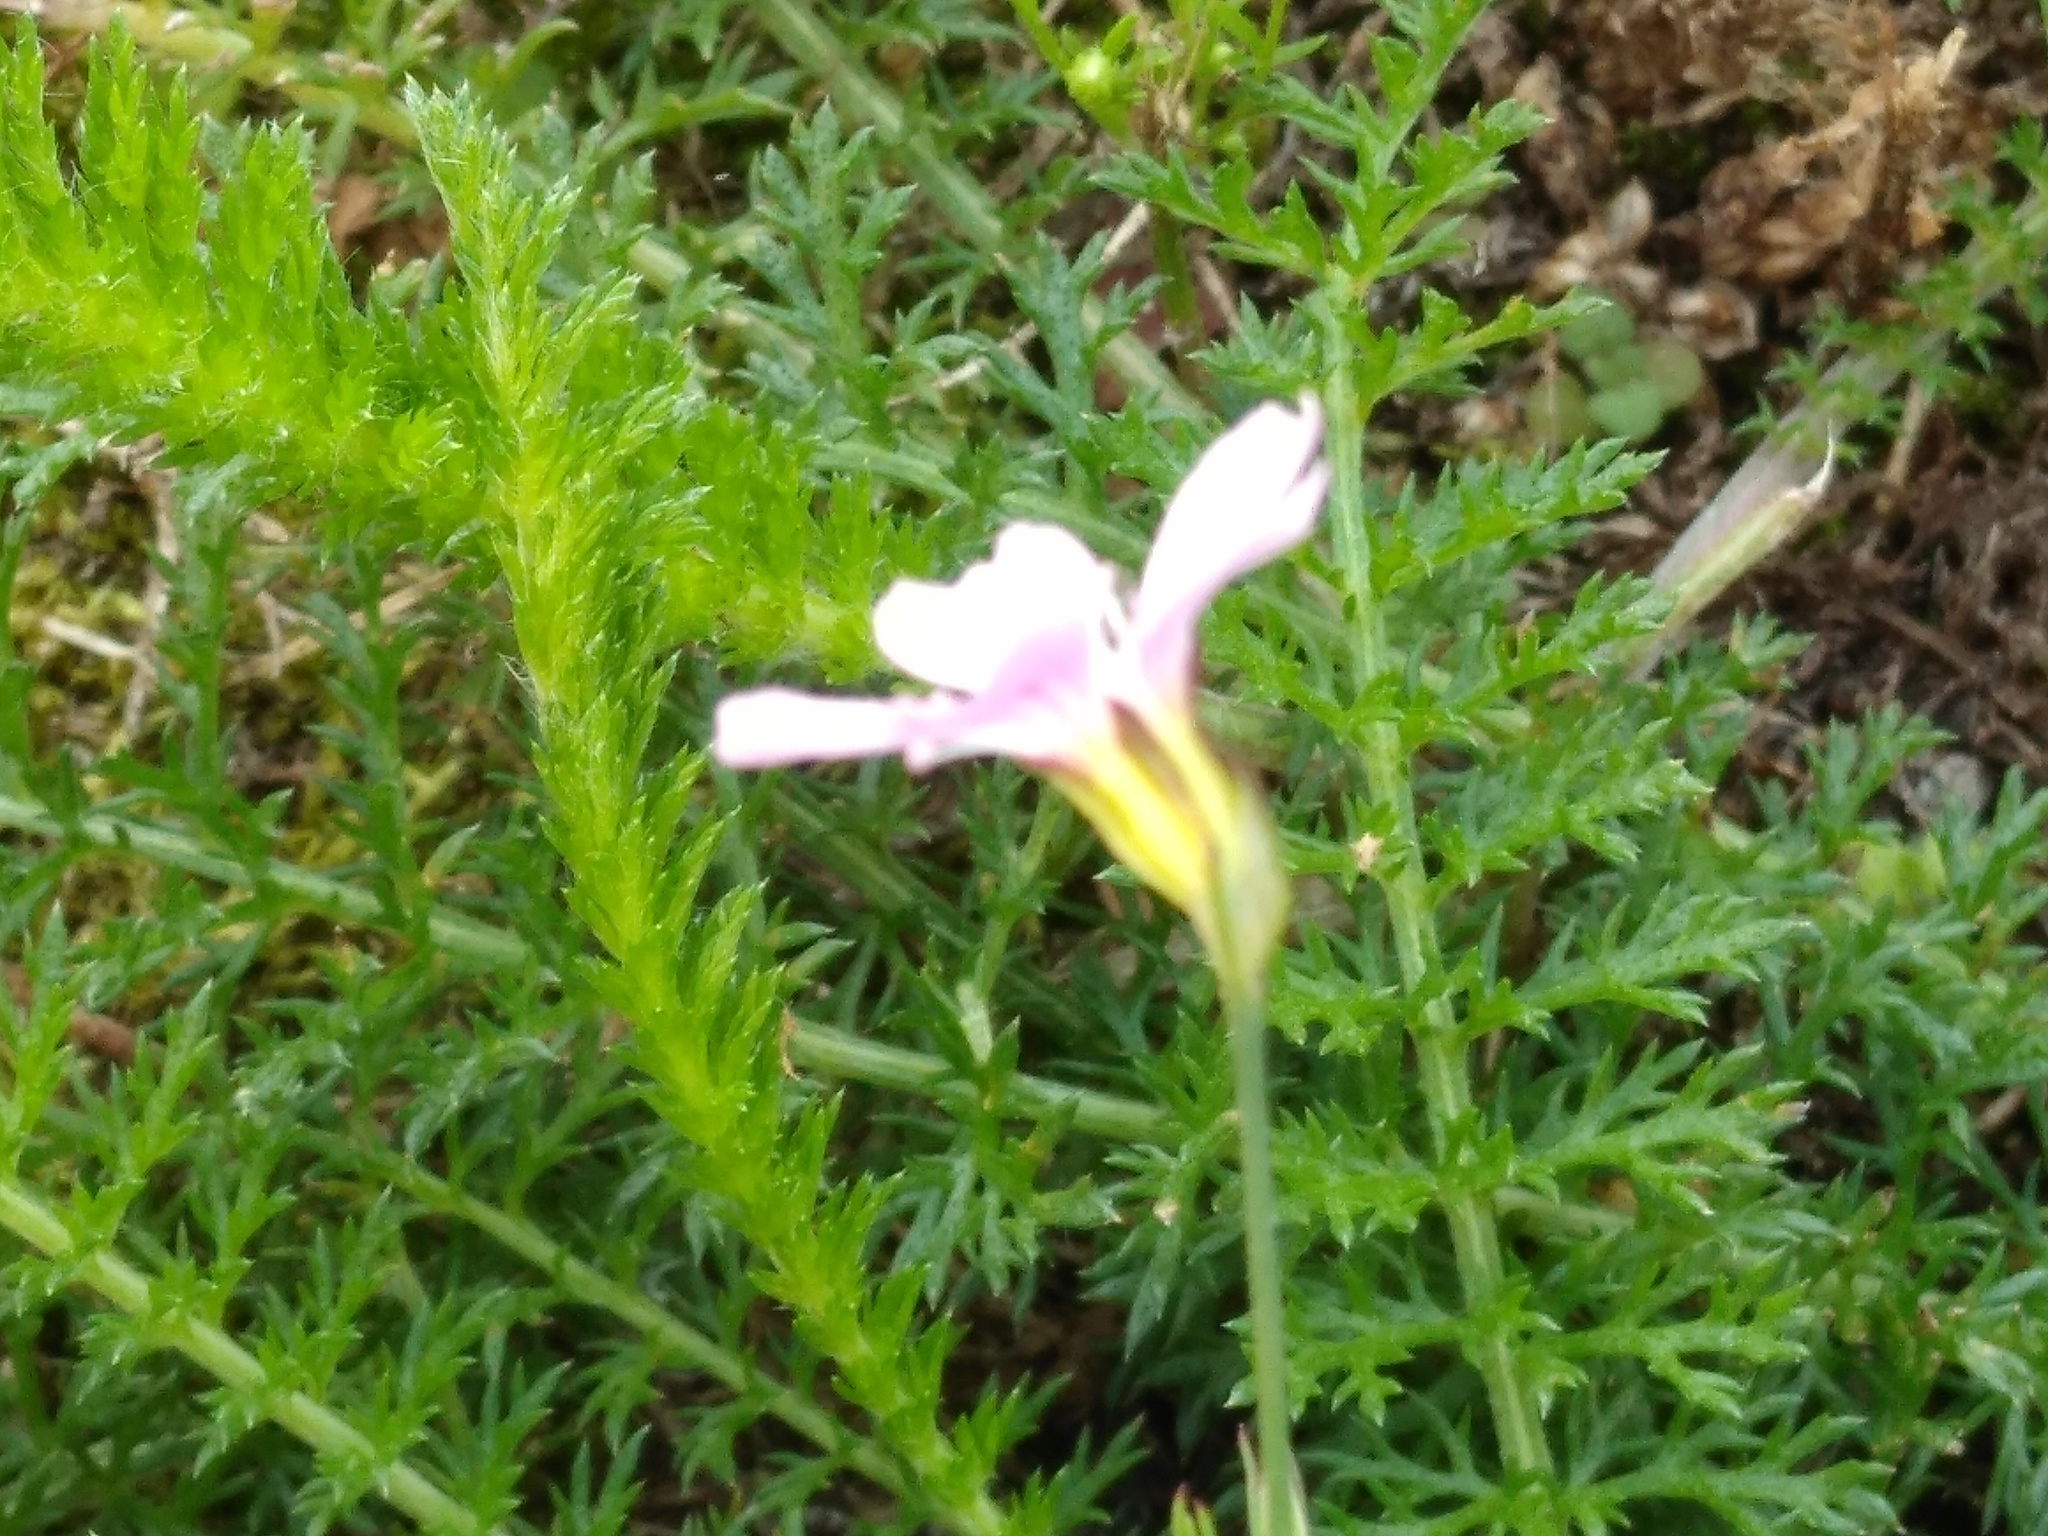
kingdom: Plantae
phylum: Tracheophyta
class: Magnoliopsida
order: Caryophyllales
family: Caryophyllaceae
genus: Petrorhagia
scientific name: Petrorhagia saxifraga
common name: Tunicflower
